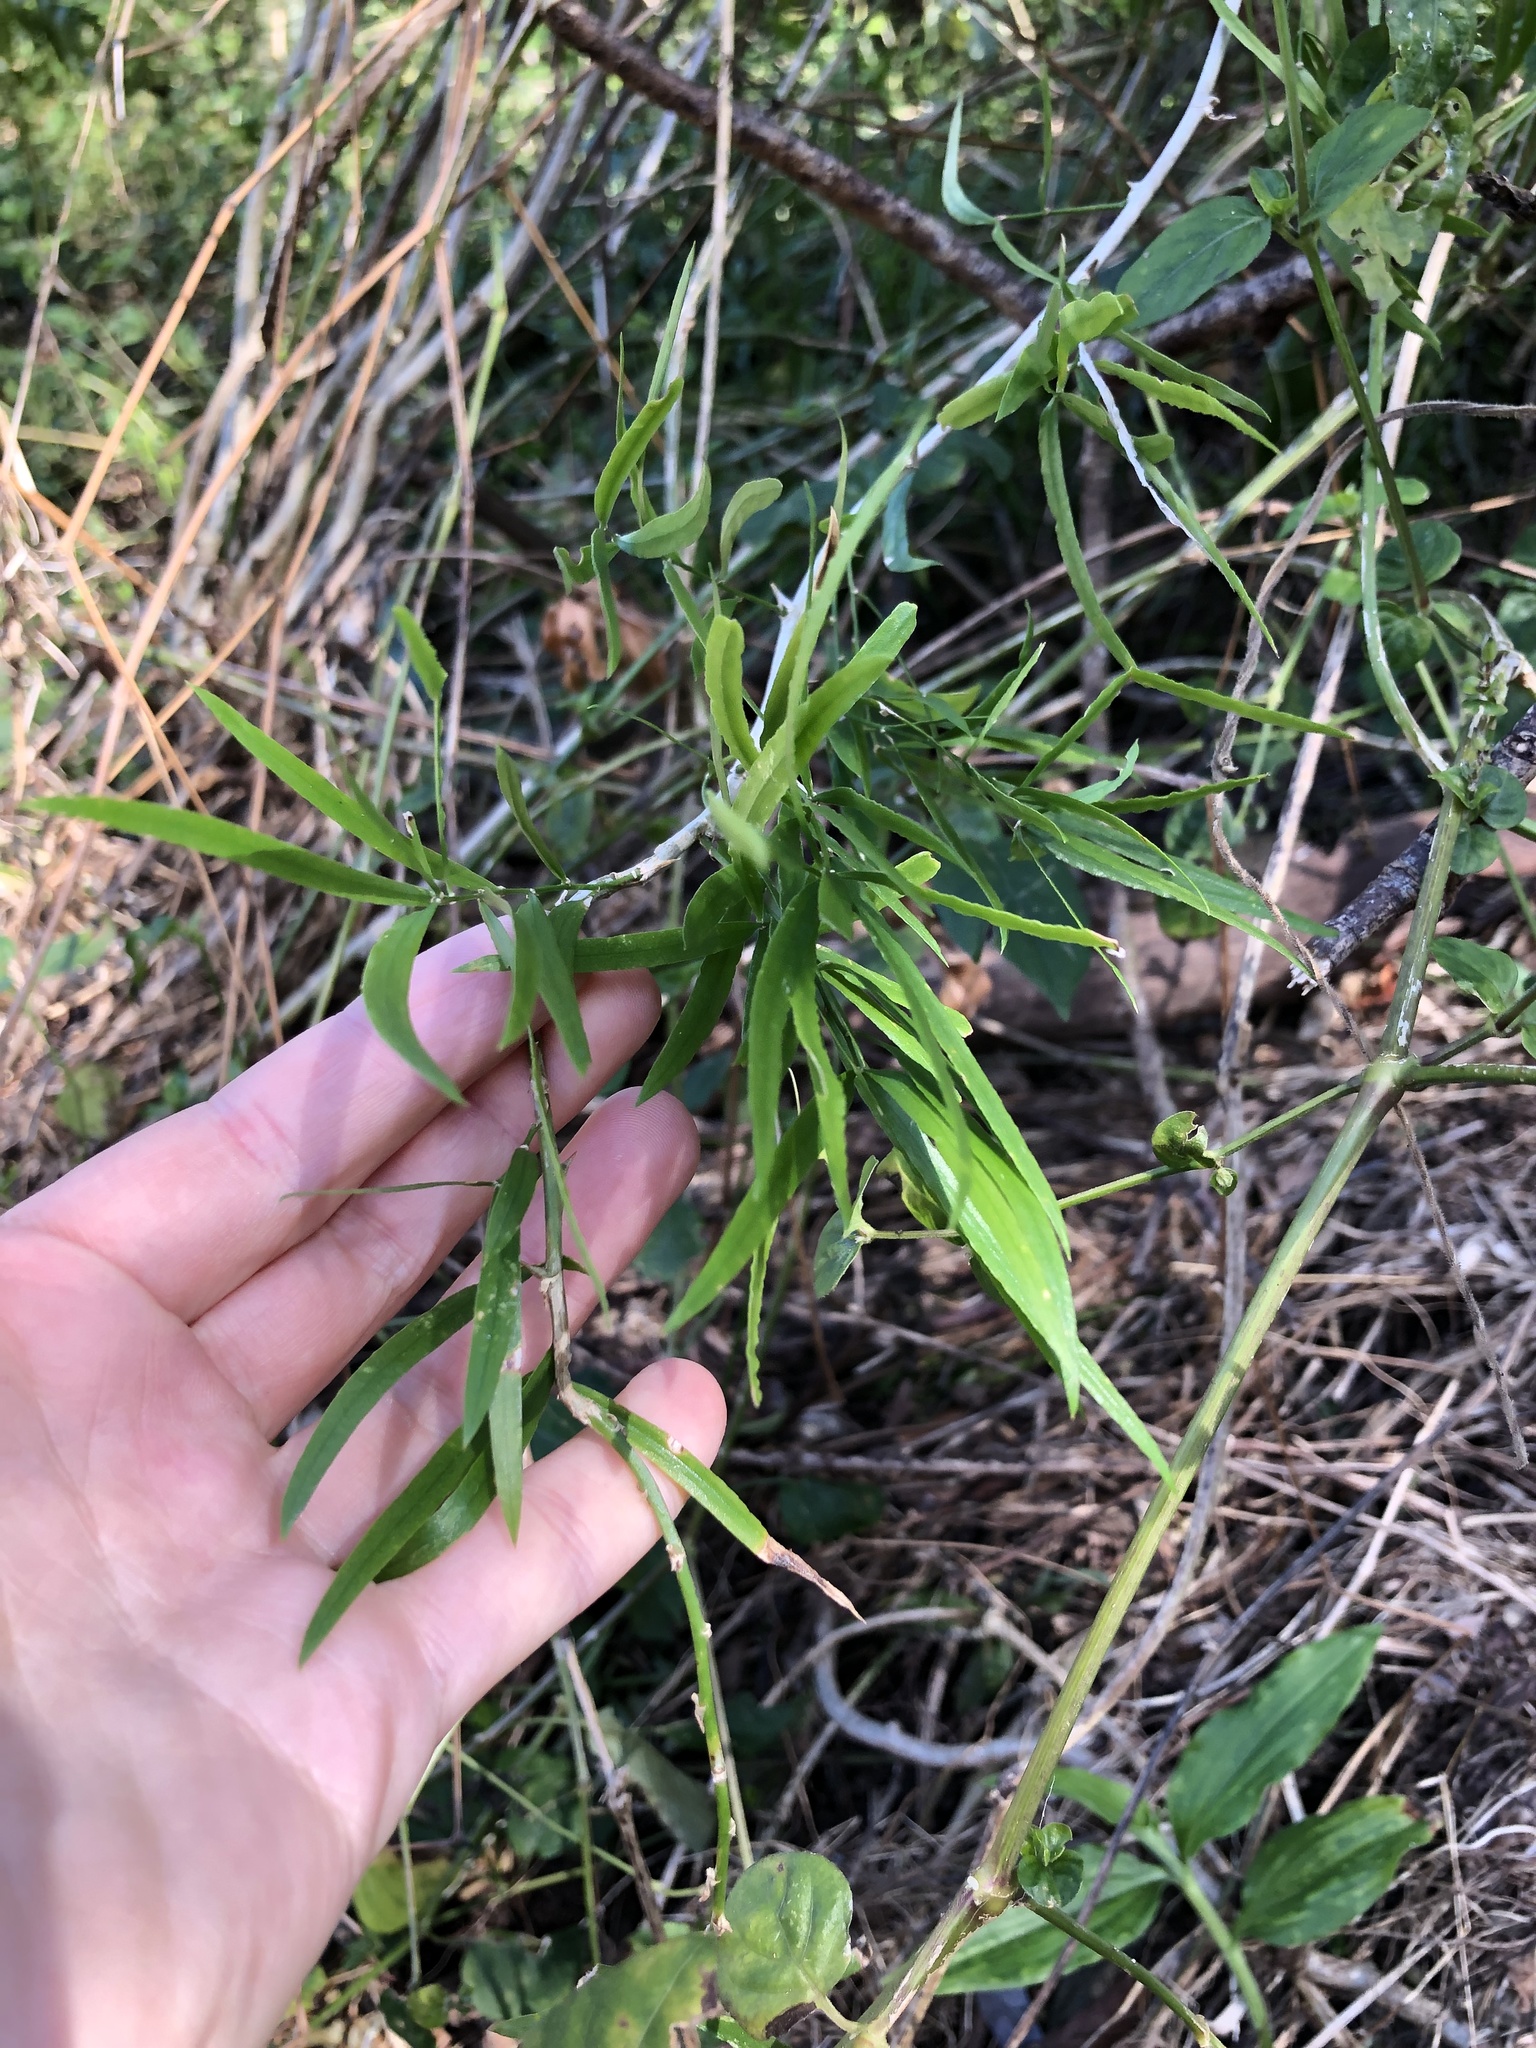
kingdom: Plantae
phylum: Tracheophyta
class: Liliopsida
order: Asparagales
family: Asparagaceae
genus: Asparagus
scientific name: Asparagus falcatus
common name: Asparagus
